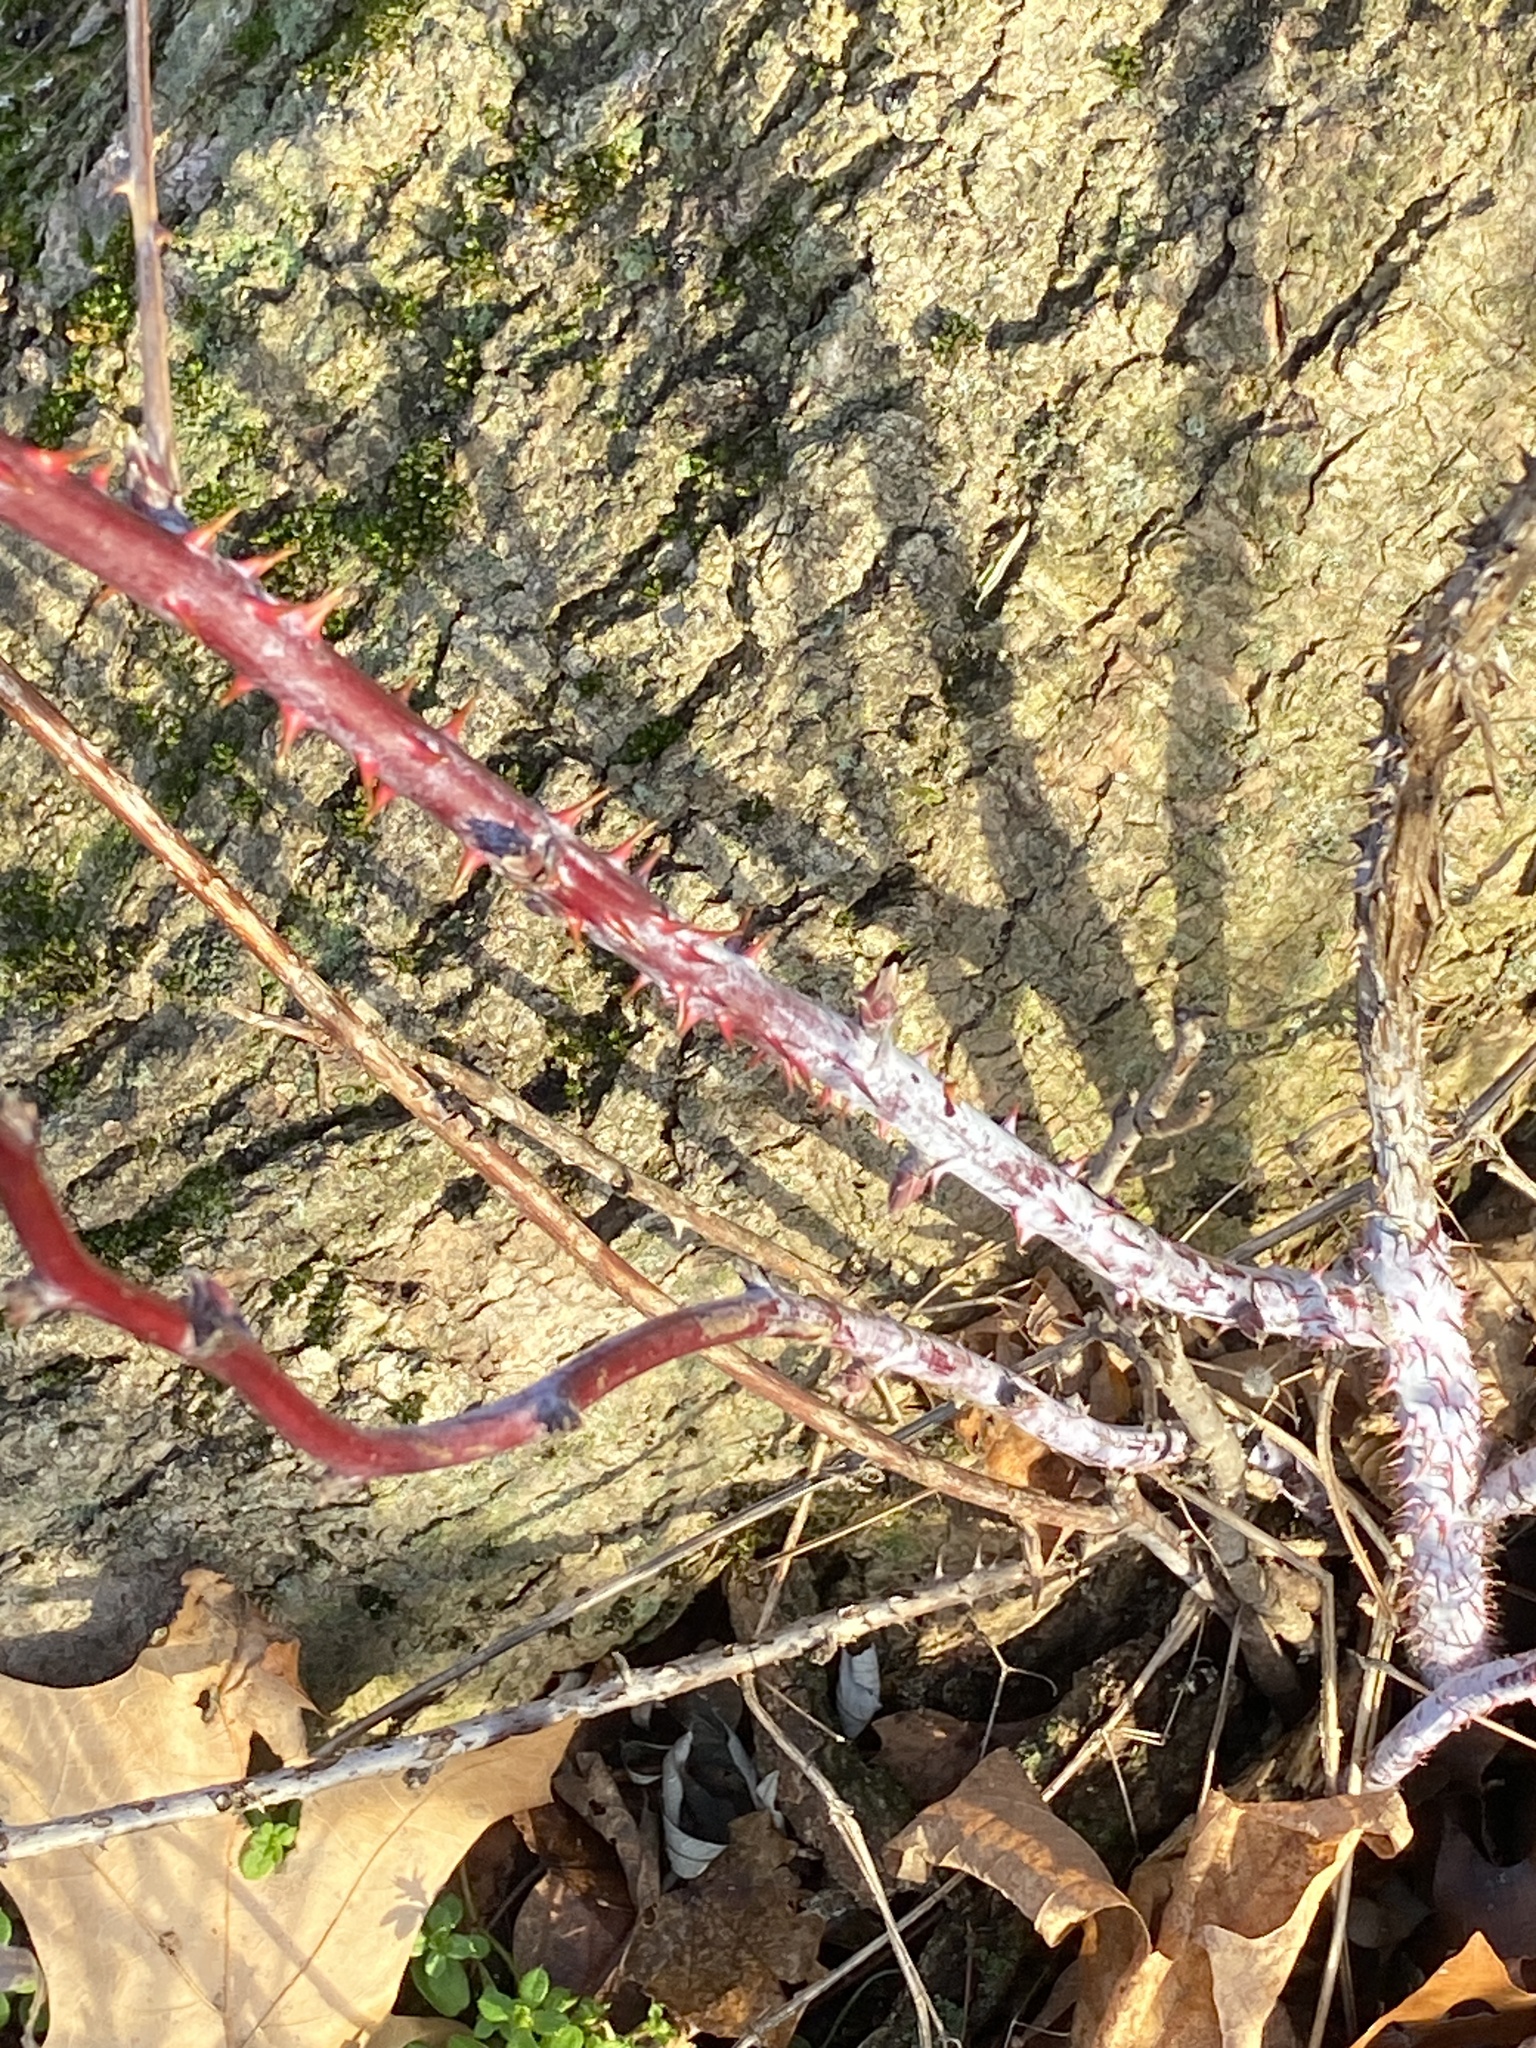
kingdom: Plantae
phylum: Tracheophyta
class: Magnoliopsida
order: Rosales
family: Rosaceae
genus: Rubus
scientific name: Rubus occidentalis
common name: Black raspberry
